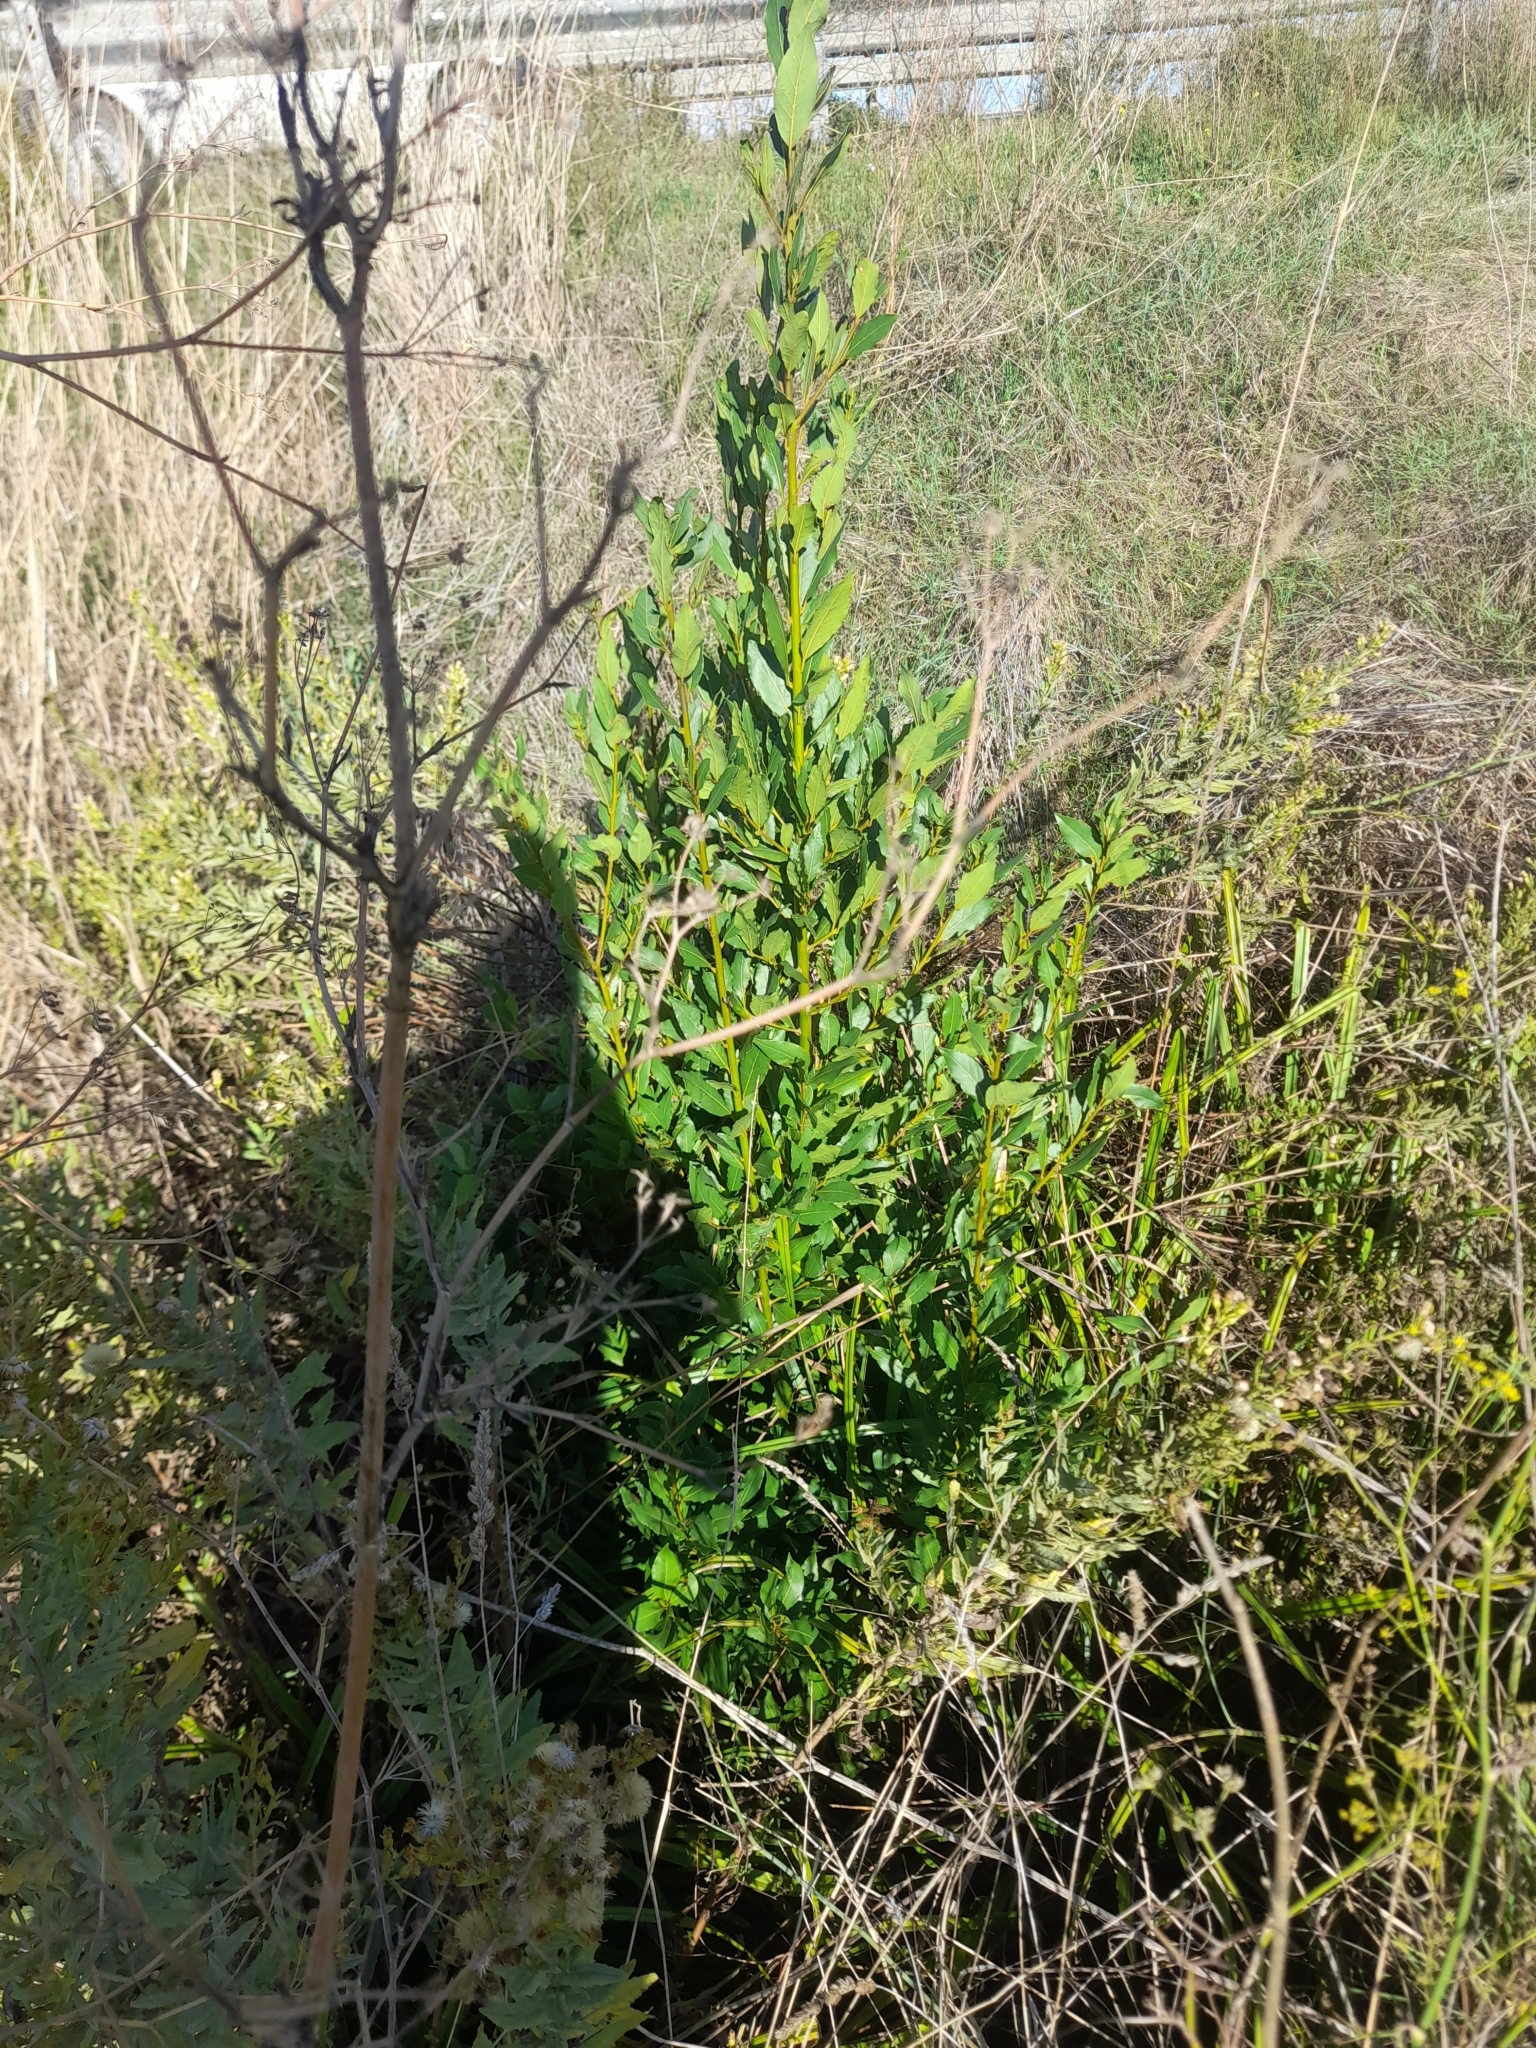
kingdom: Plantae
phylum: Tracheophyta
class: Magnoliopsida
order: Laurales
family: Lauraceae
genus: Laurus
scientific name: Laurus nobilis
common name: Bay
